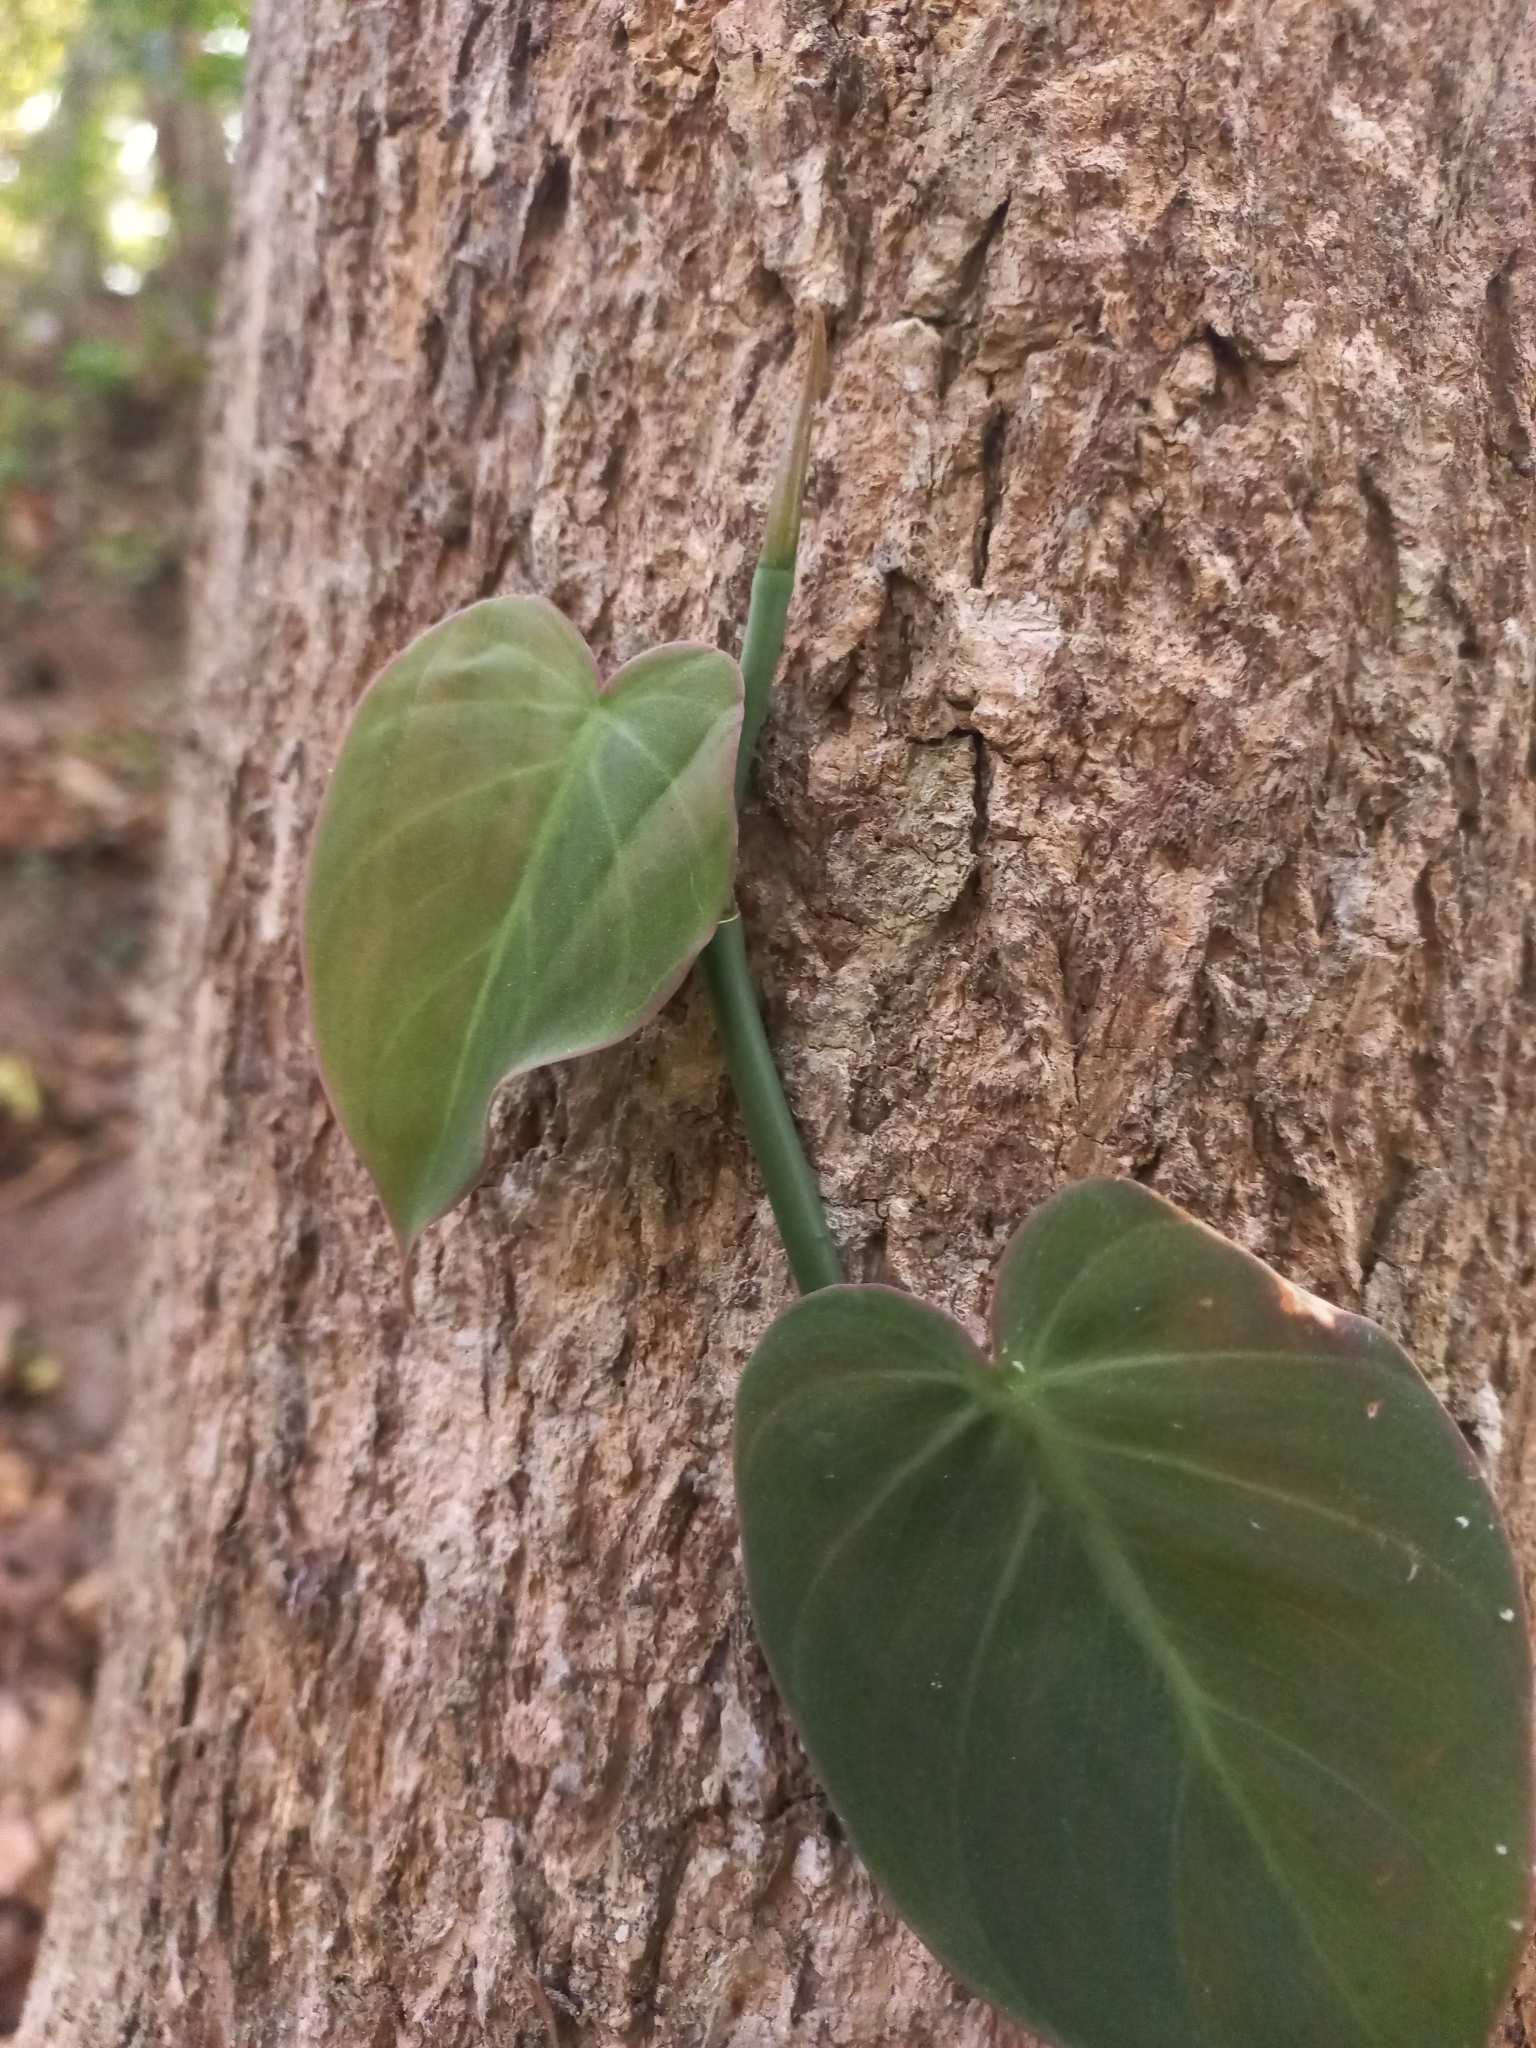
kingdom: Plantae
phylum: Tracheophyta
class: Liliopsida
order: Alismatales
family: Araceae
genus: Philodendron
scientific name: Philodendron hederaceum
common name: Vilevine
